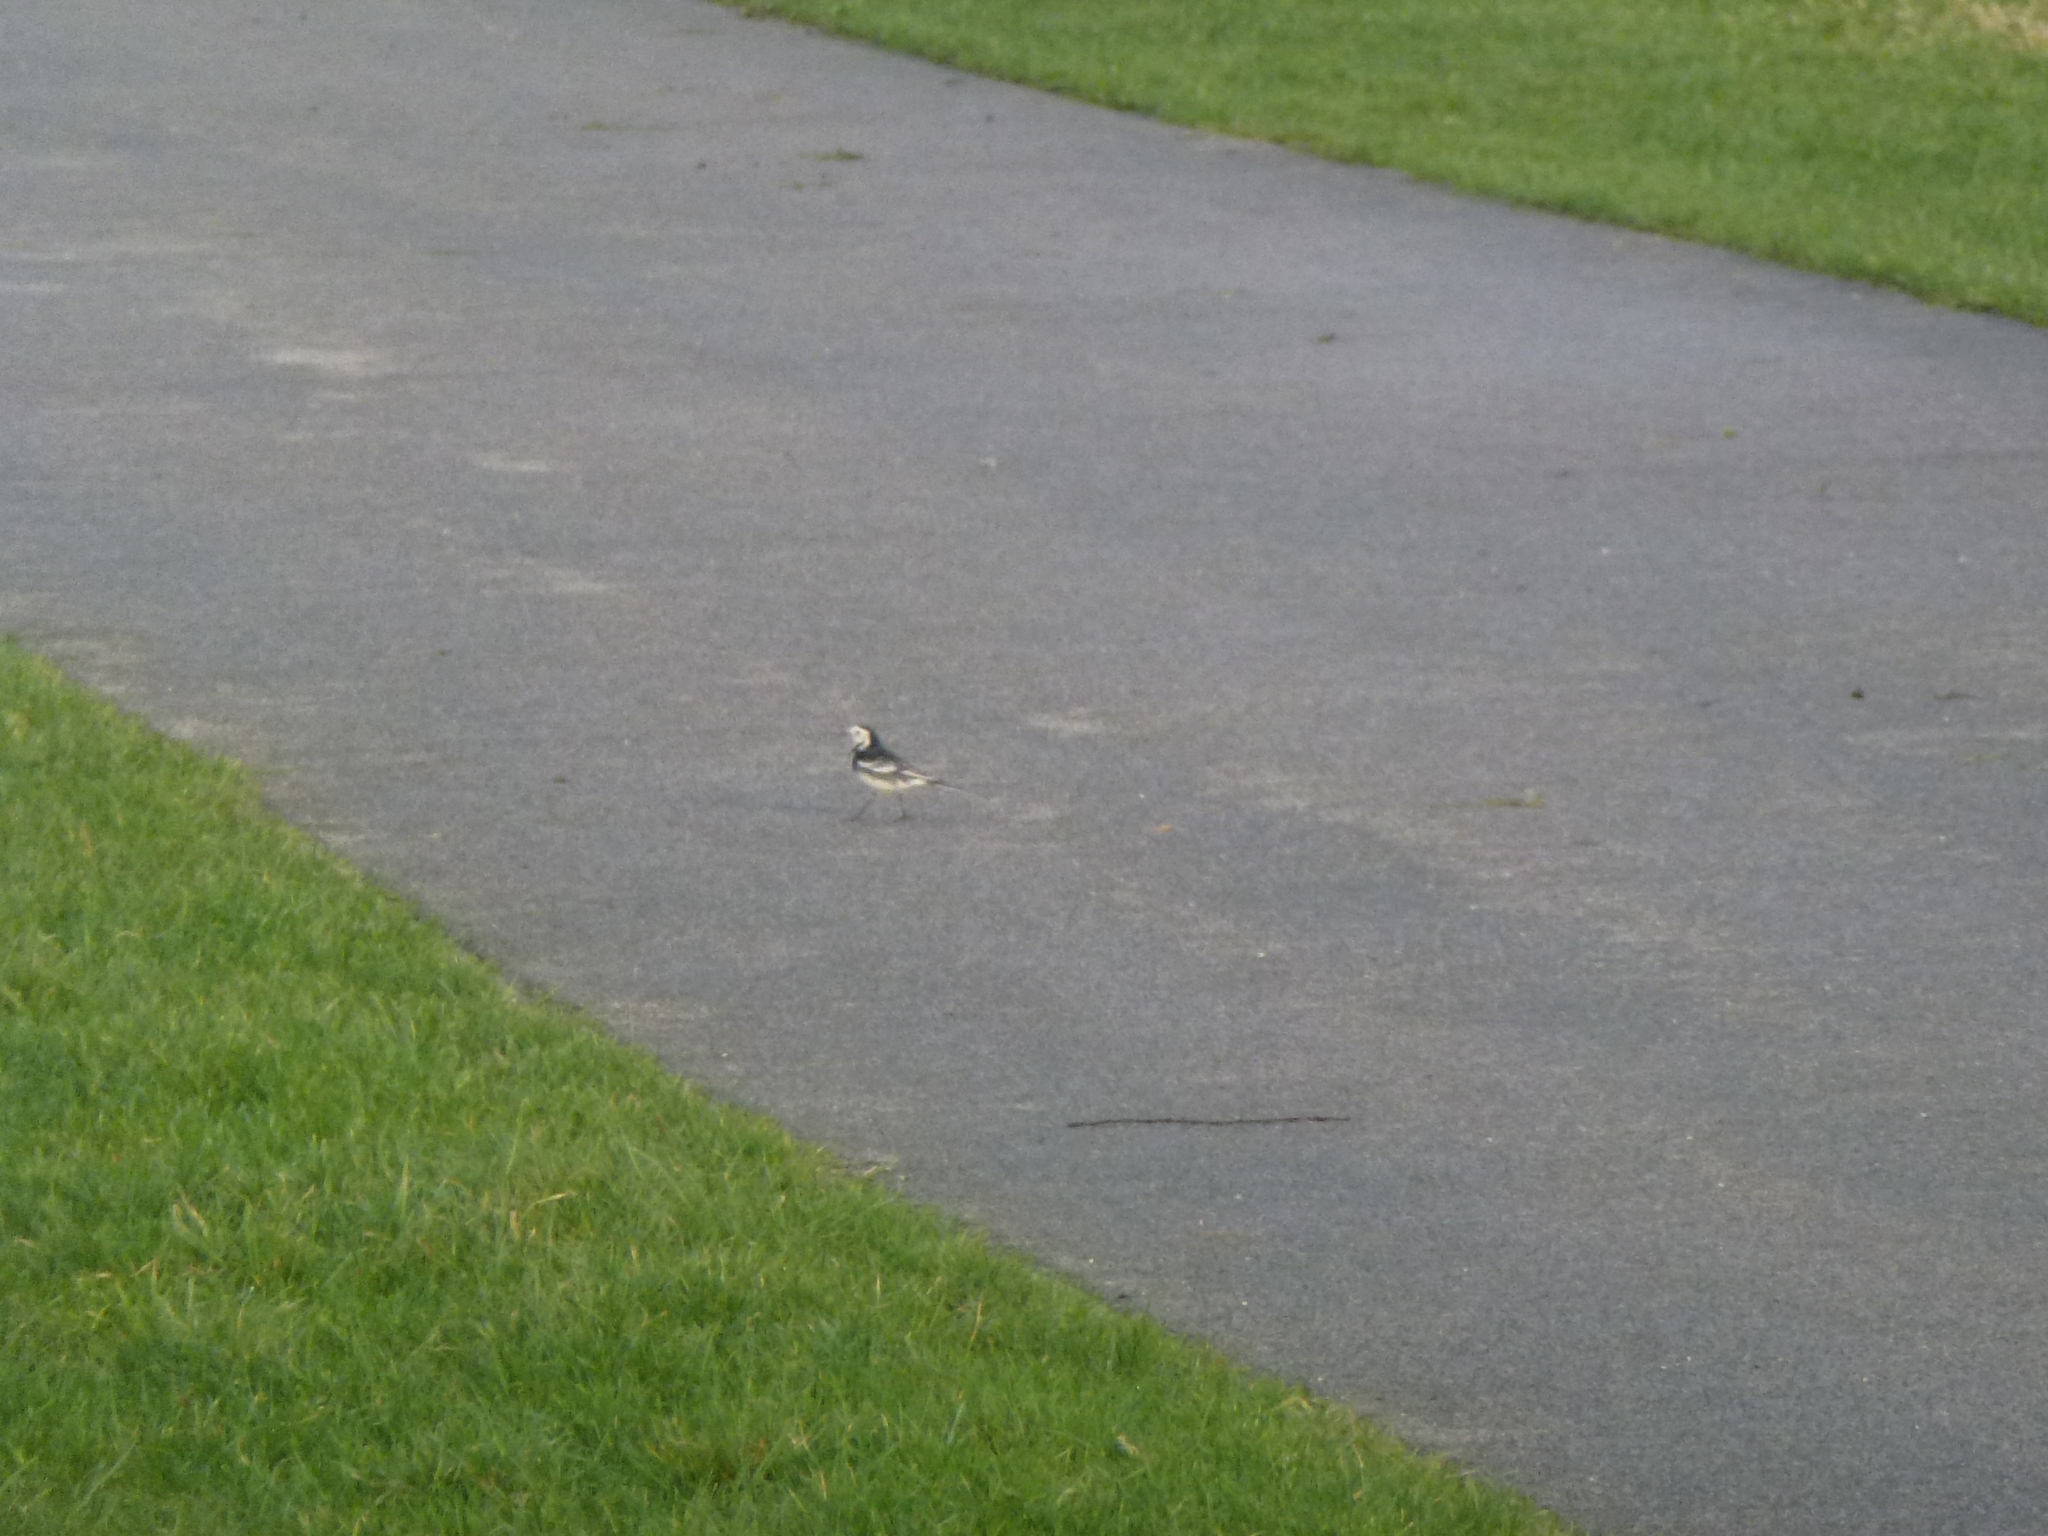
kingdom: Animalia
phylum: Chordata
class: Aves
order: Passeriformes
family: Motacillidae
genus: Motacilla
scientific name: Motacilla alba
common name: White wagtail
